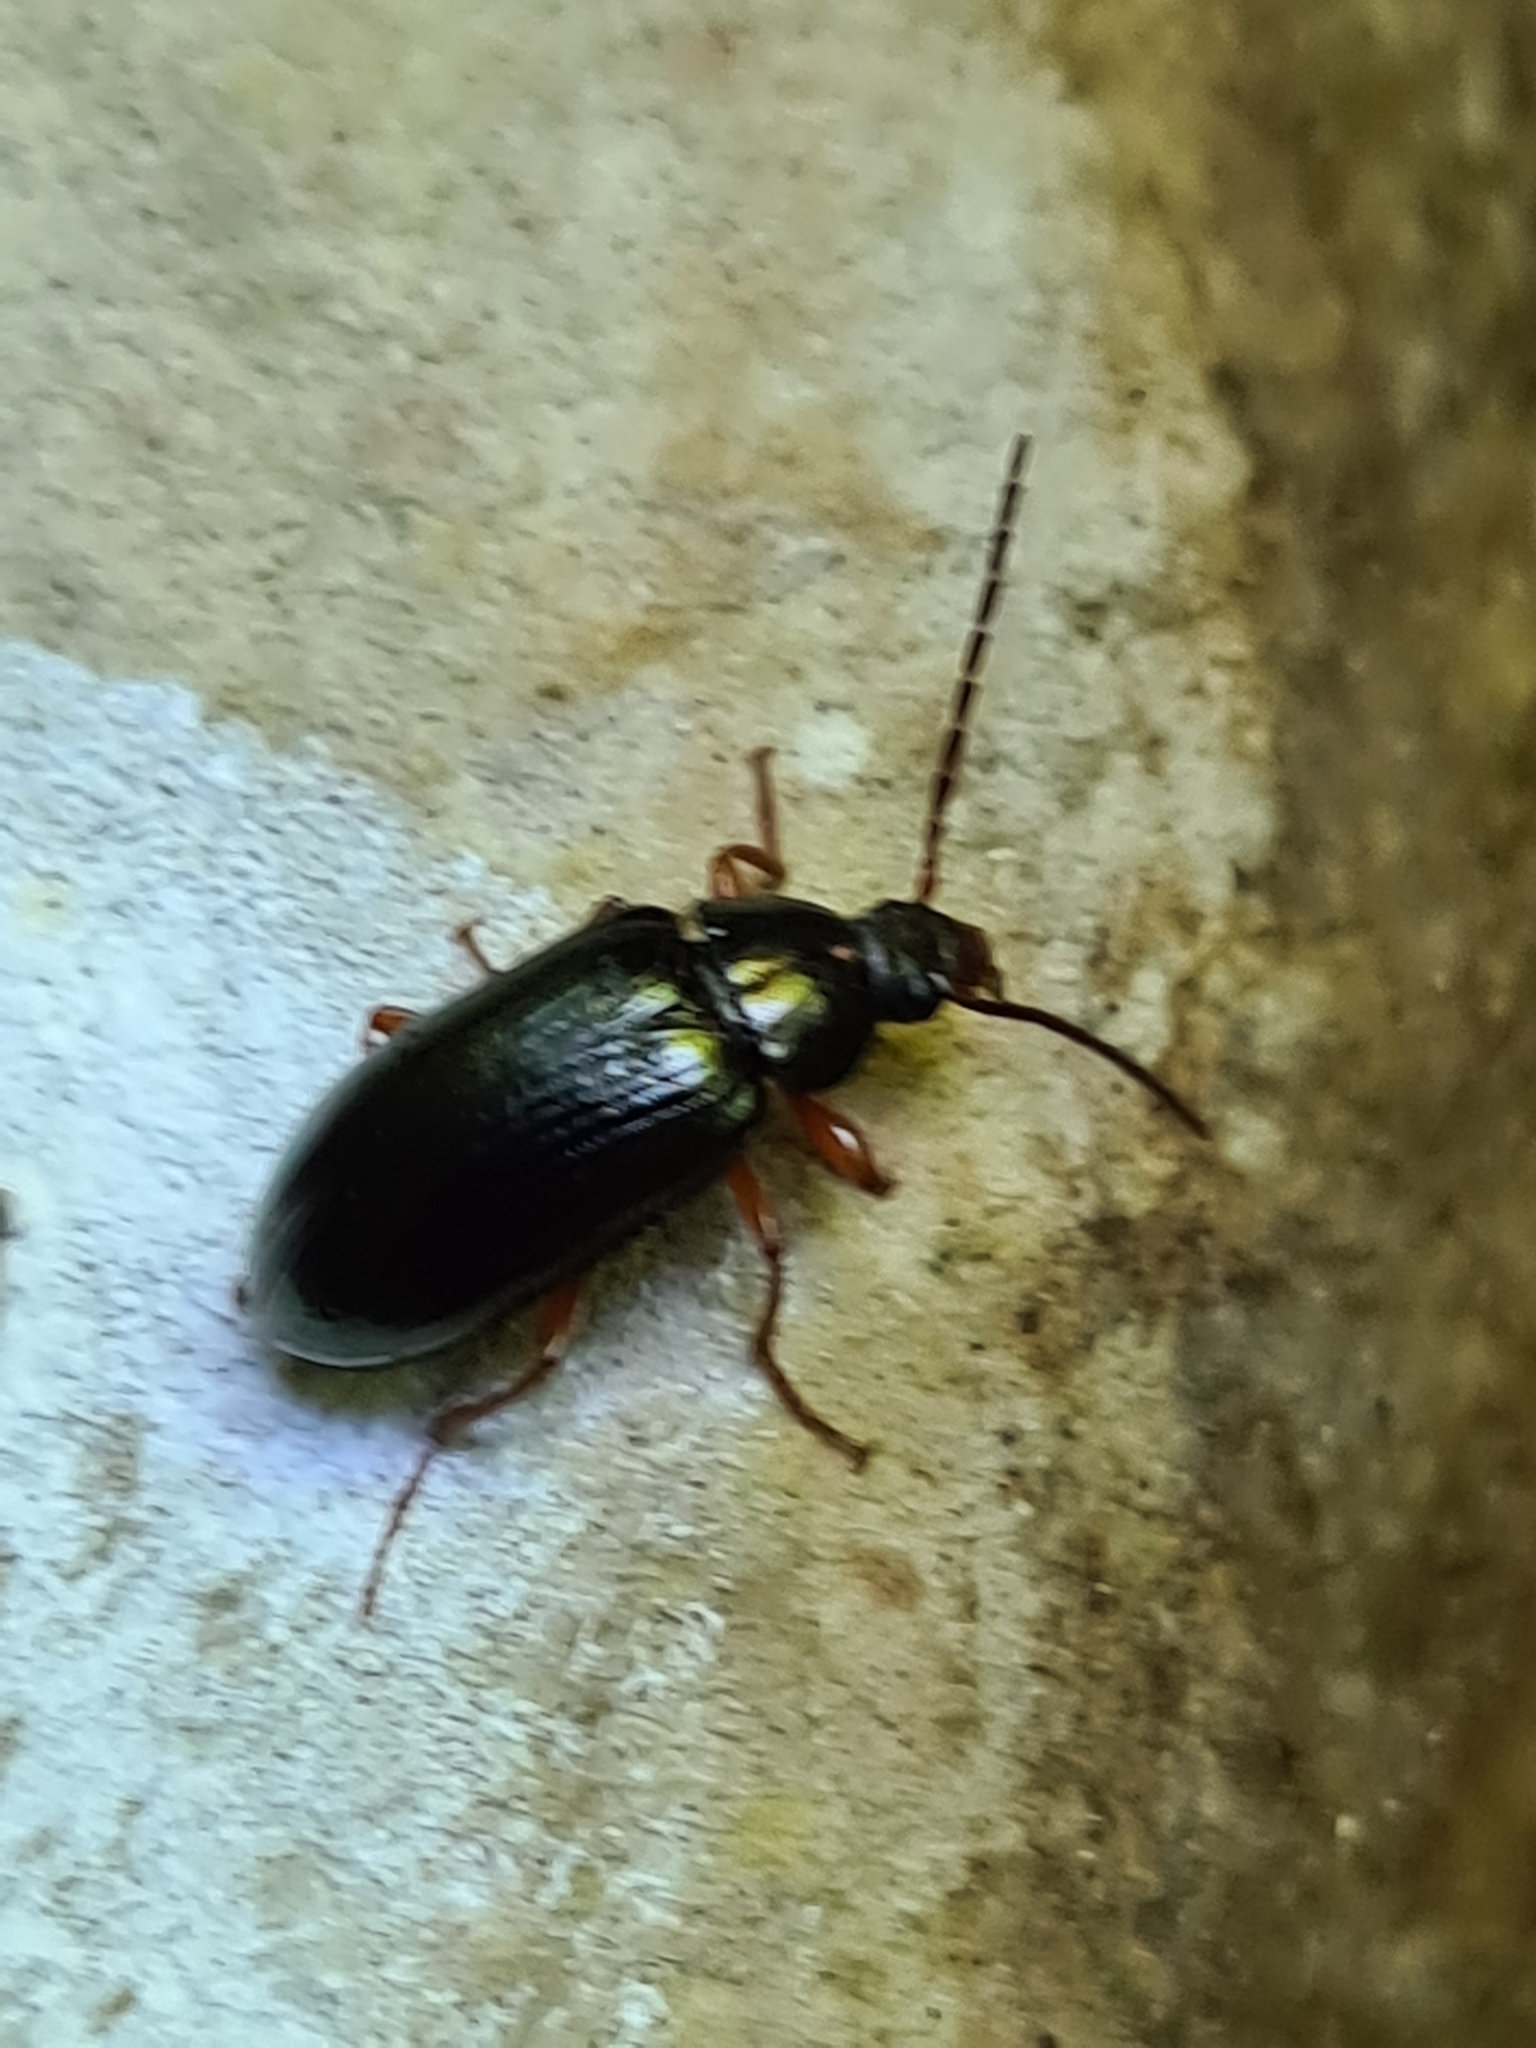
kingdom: Animalia
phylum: Arthropoda
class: Insecta
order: Coleoptera
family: Tenebrionidae
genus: Gonodera
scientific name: Gonodera luperus
